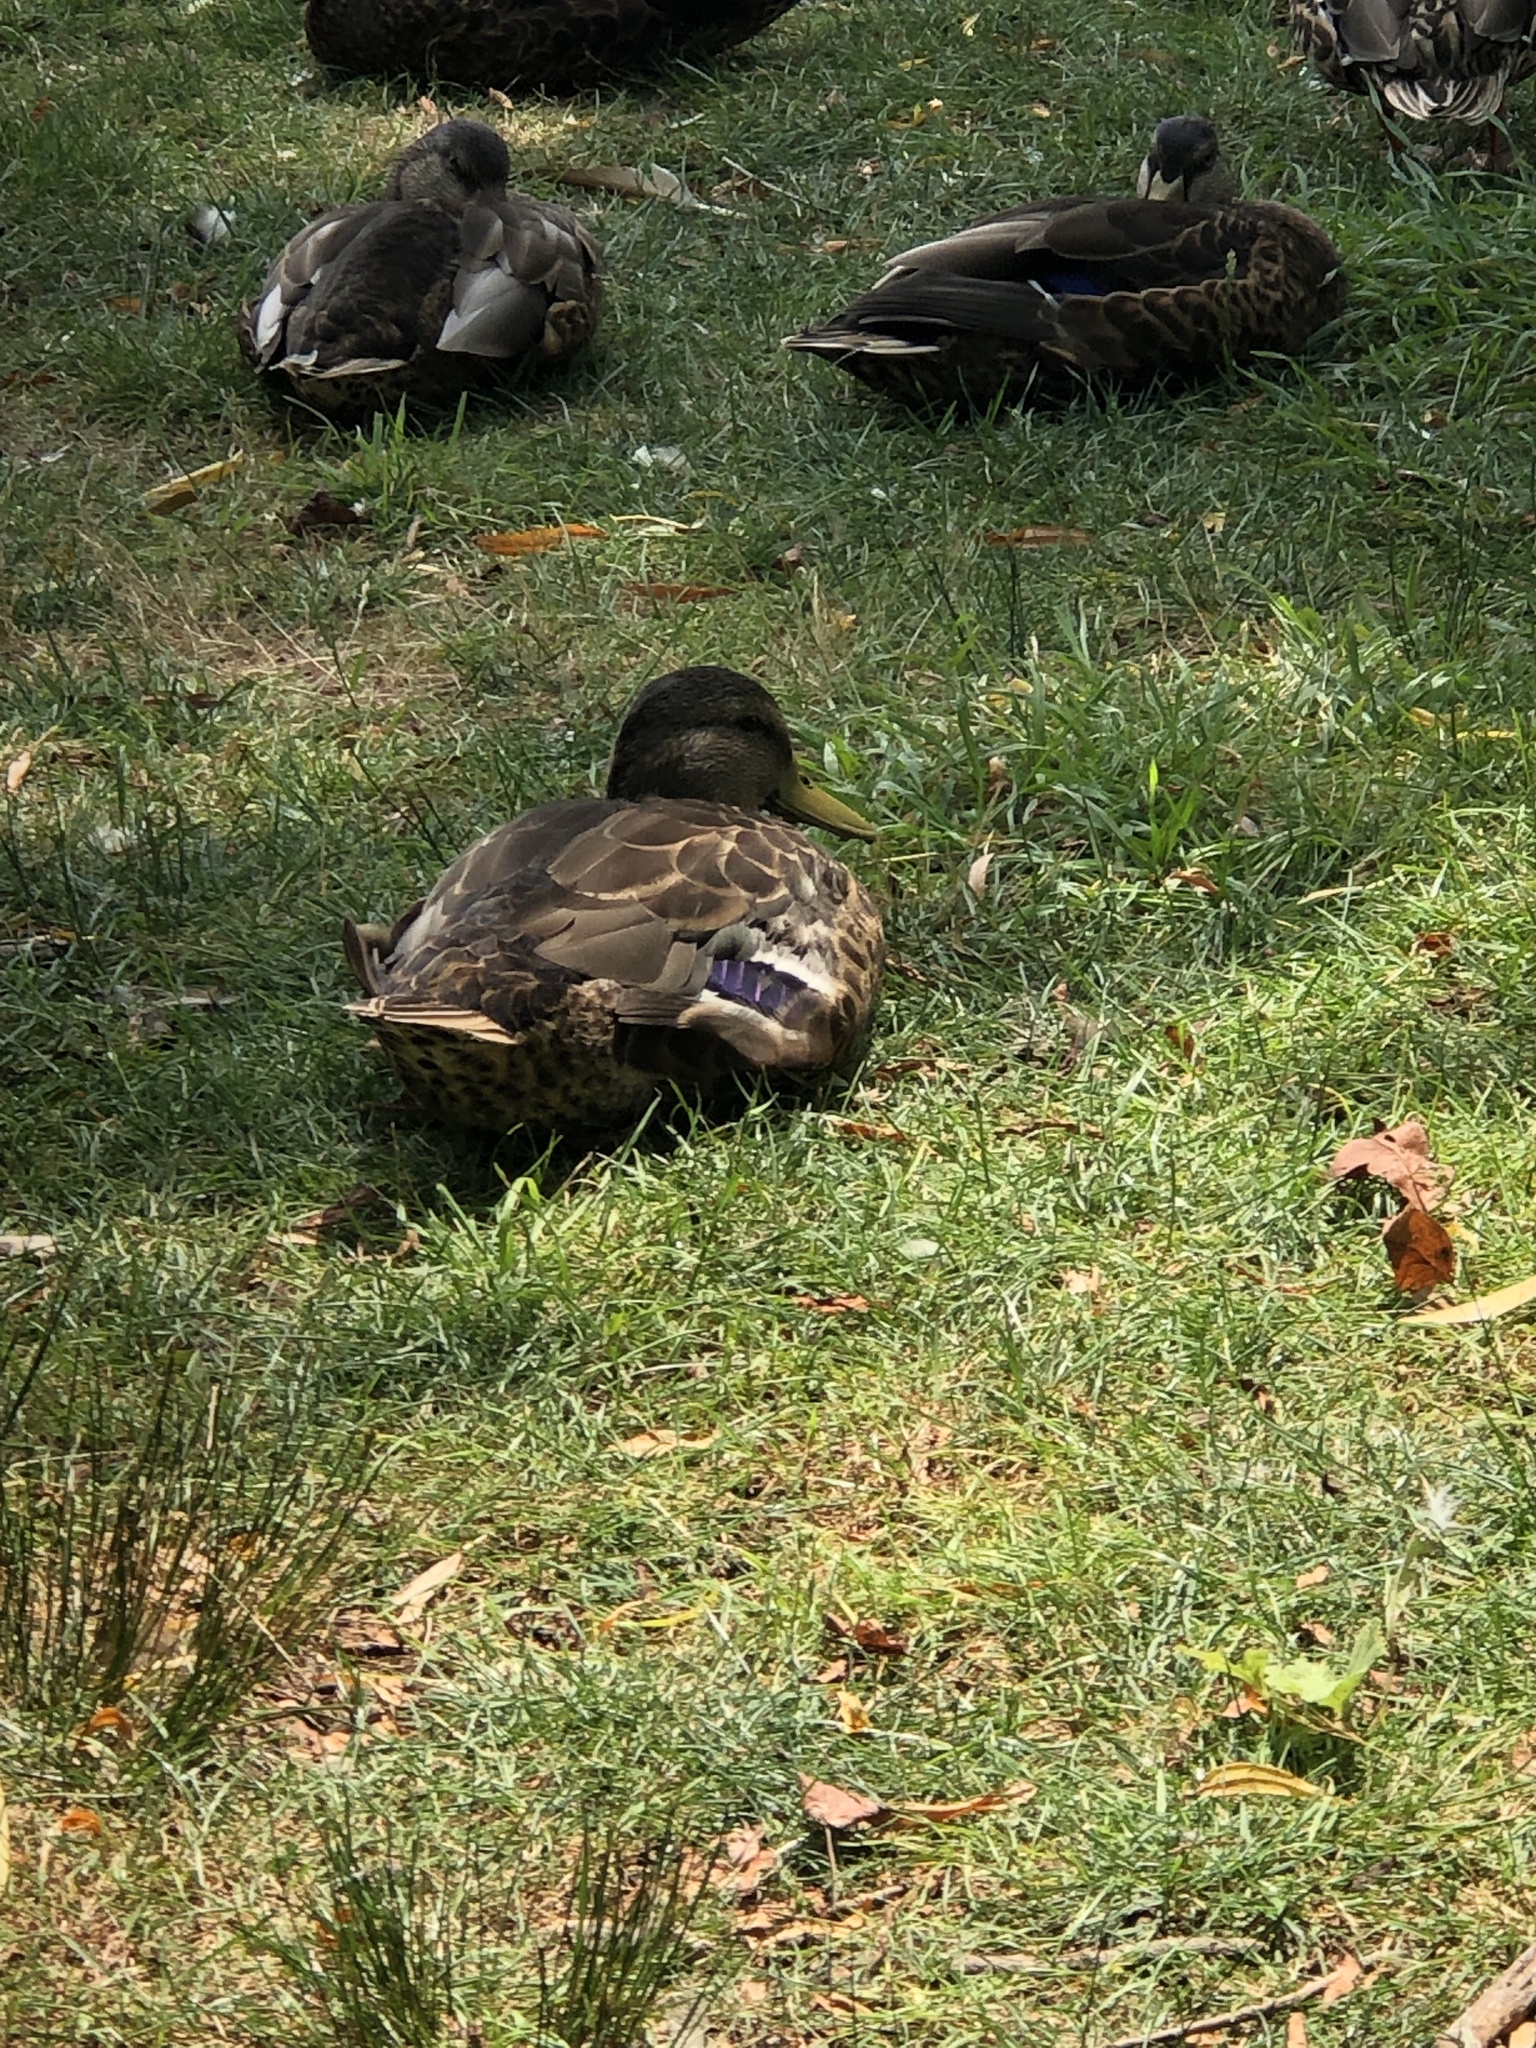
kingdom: Animalia
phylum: Chordata
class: Aves
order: Anseriformes
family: Anatidae
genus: Anas
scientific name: Anas platyrhynchos
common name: Mallard
